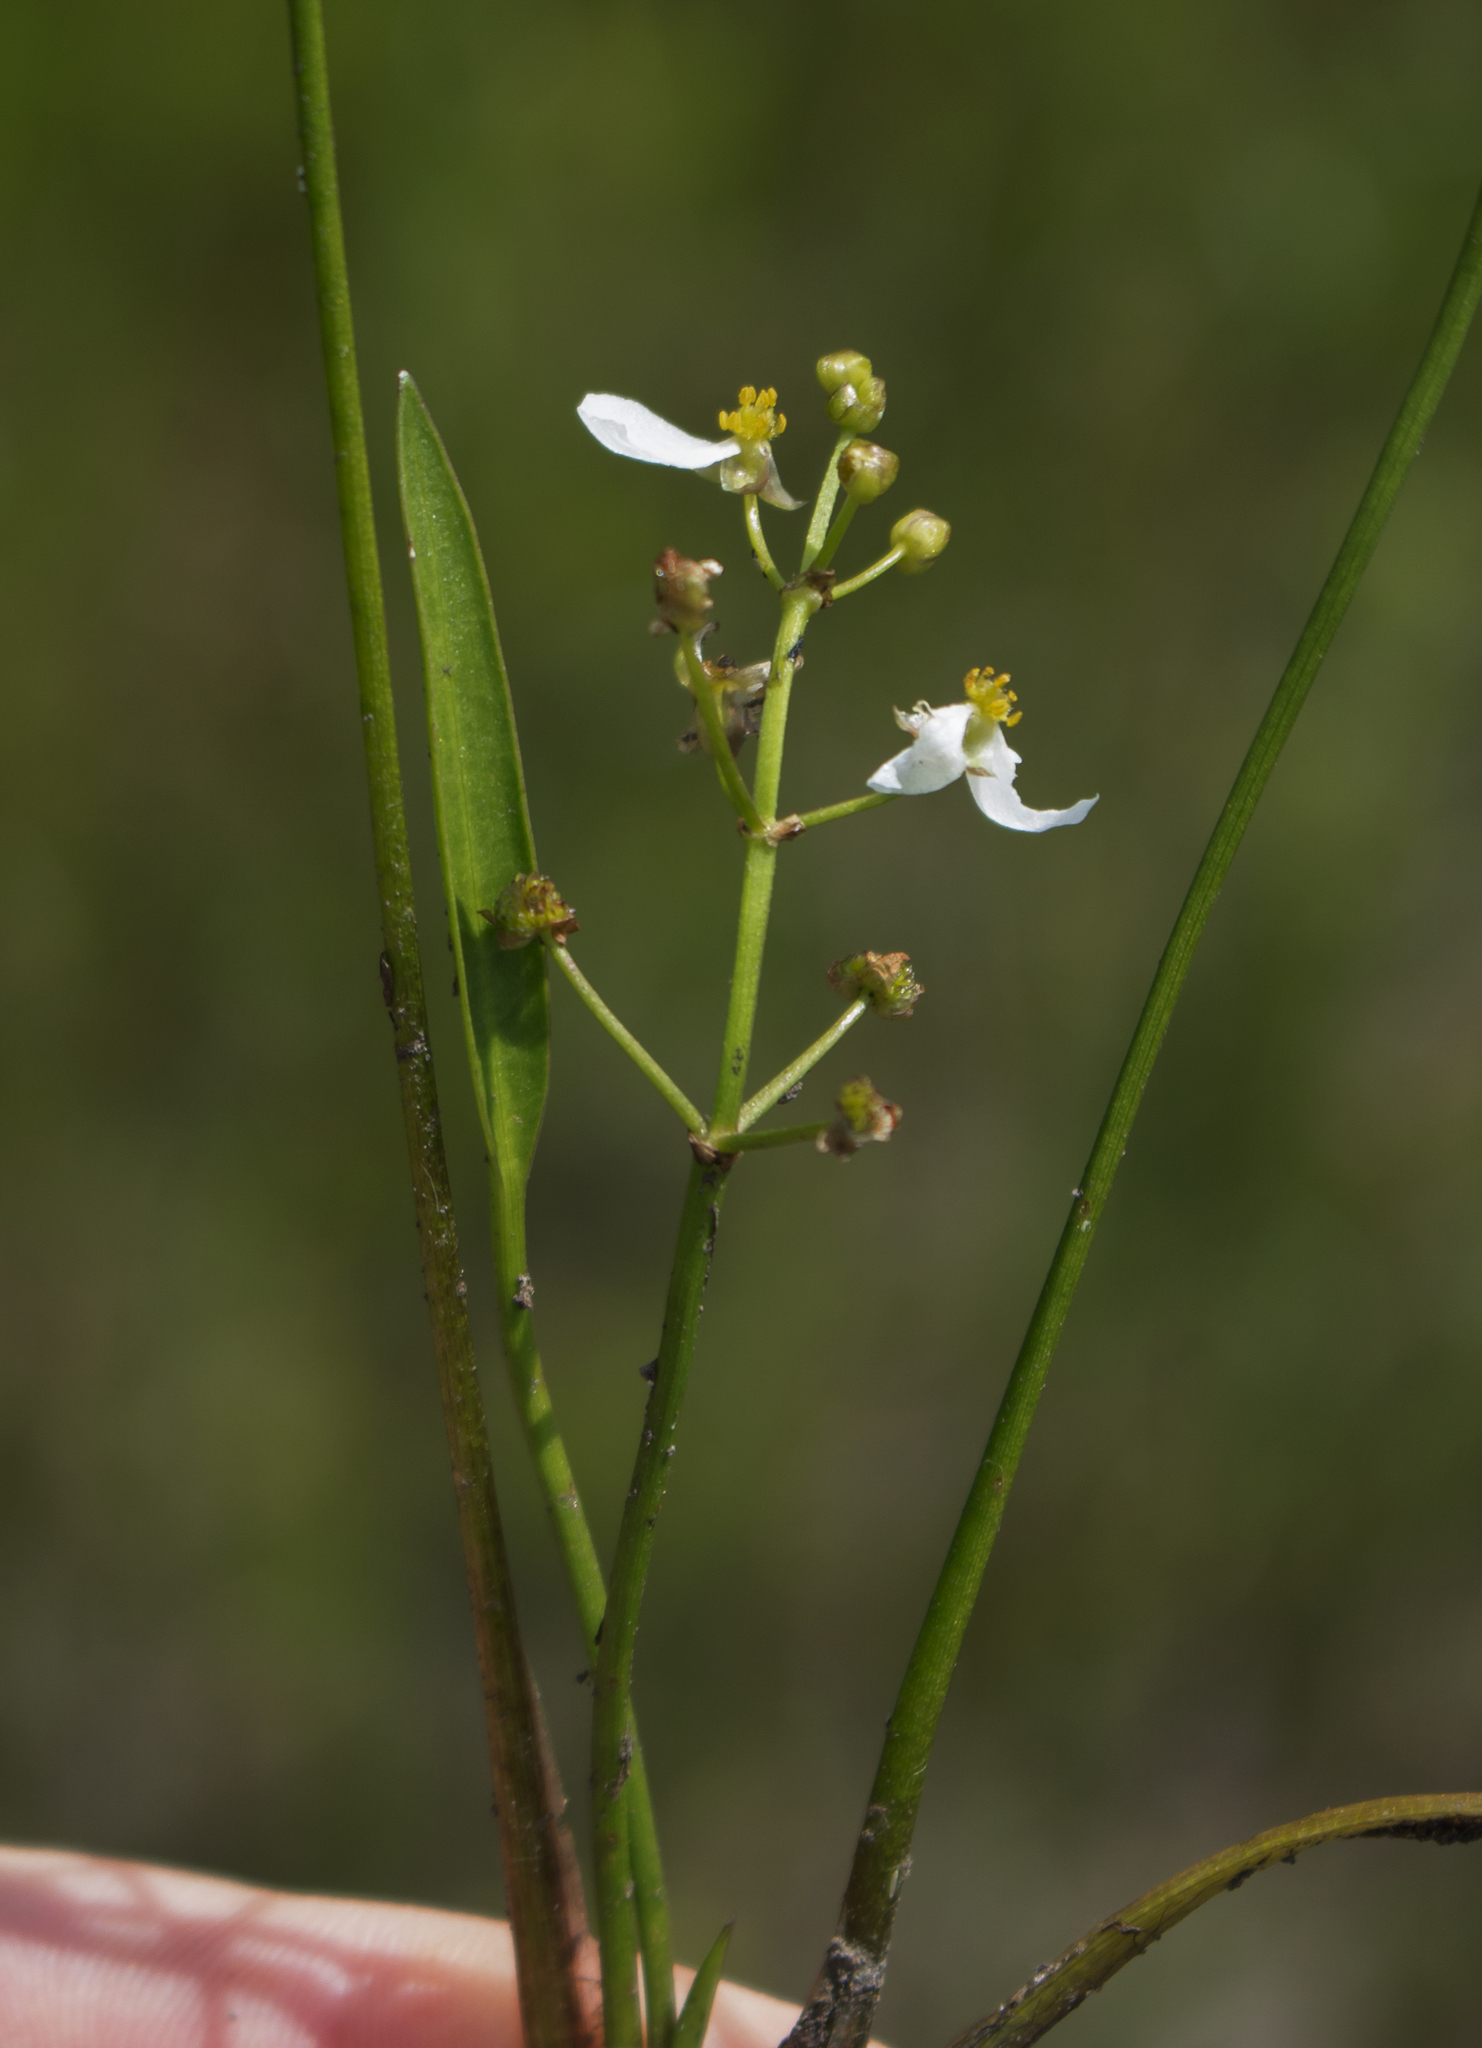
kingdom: Plantae
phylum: Tracheophyta
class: Liliopsida
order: Alismatales
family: Alismataceae
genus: Sagittaria
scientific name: Sagittaria graminea
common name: Grass-leaved arrowhead
